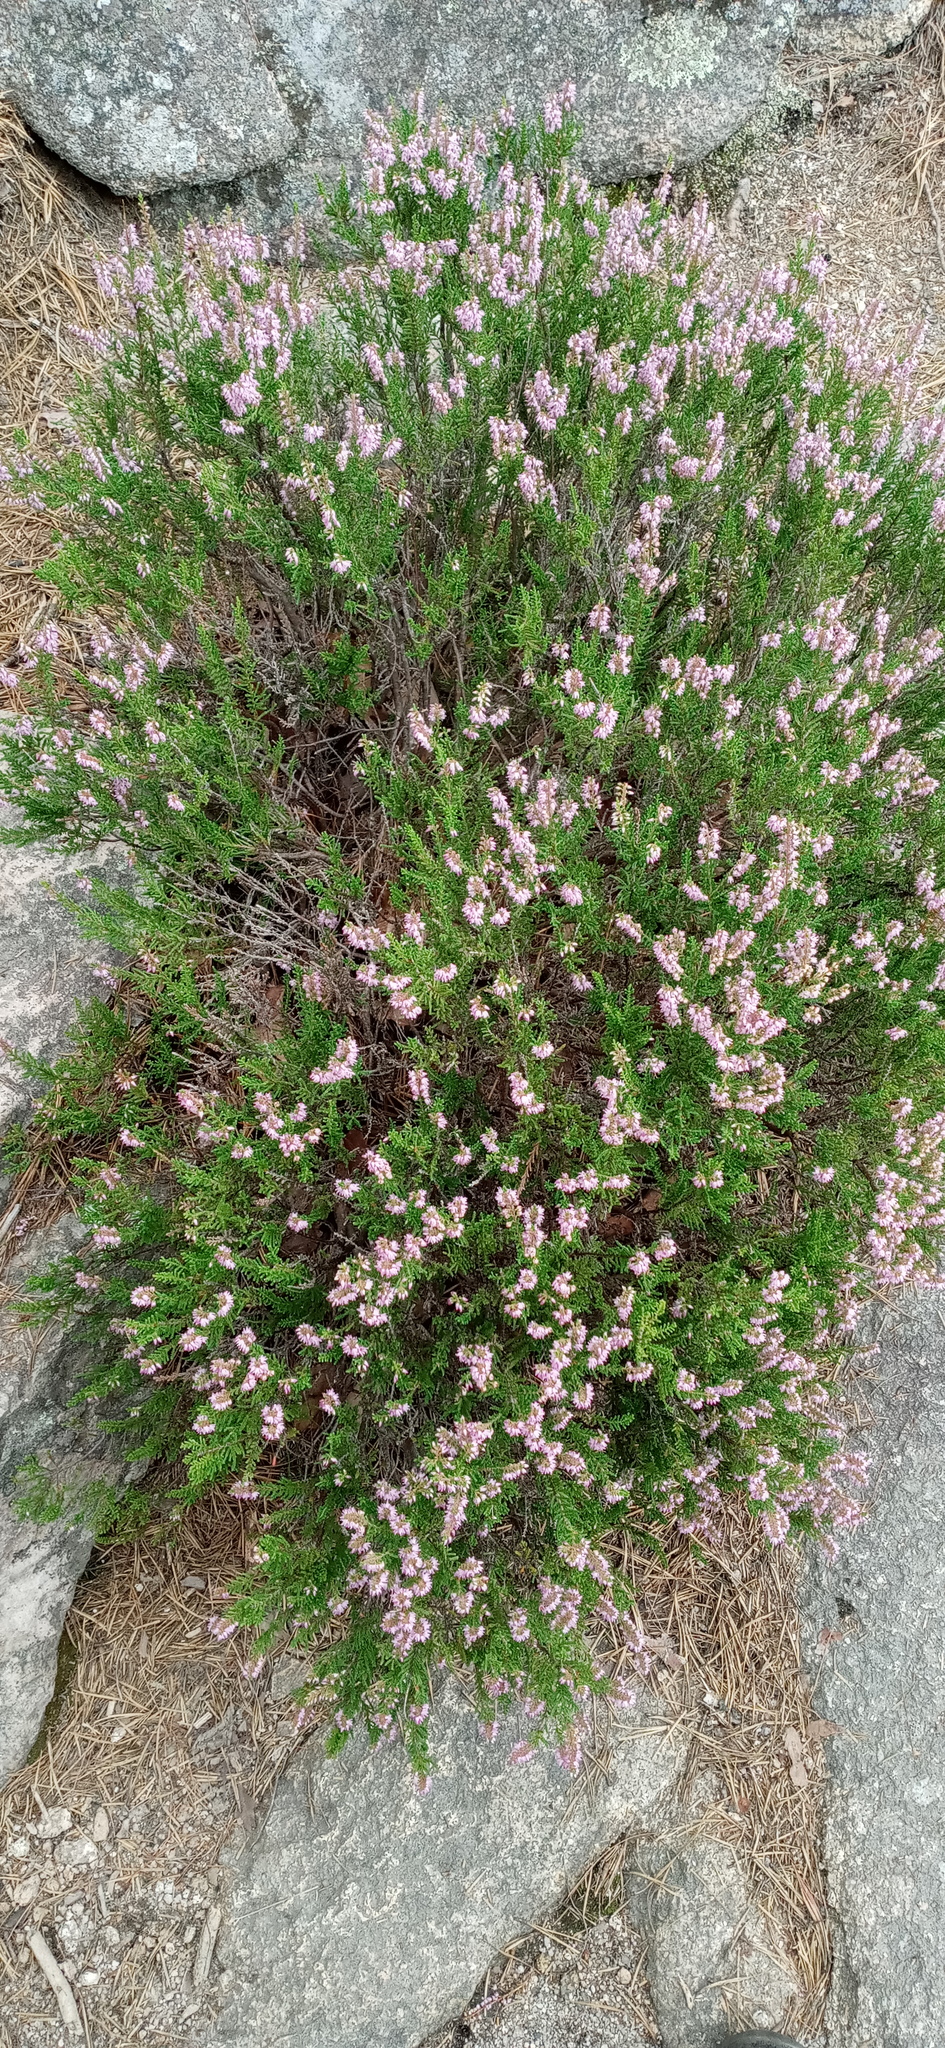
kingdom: Plantae
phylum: Tracheophyta
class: Magnoliopsida
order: Ericales
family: Ericaceae
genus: Calluna
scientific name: Calluna vulgaris
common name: Heather
